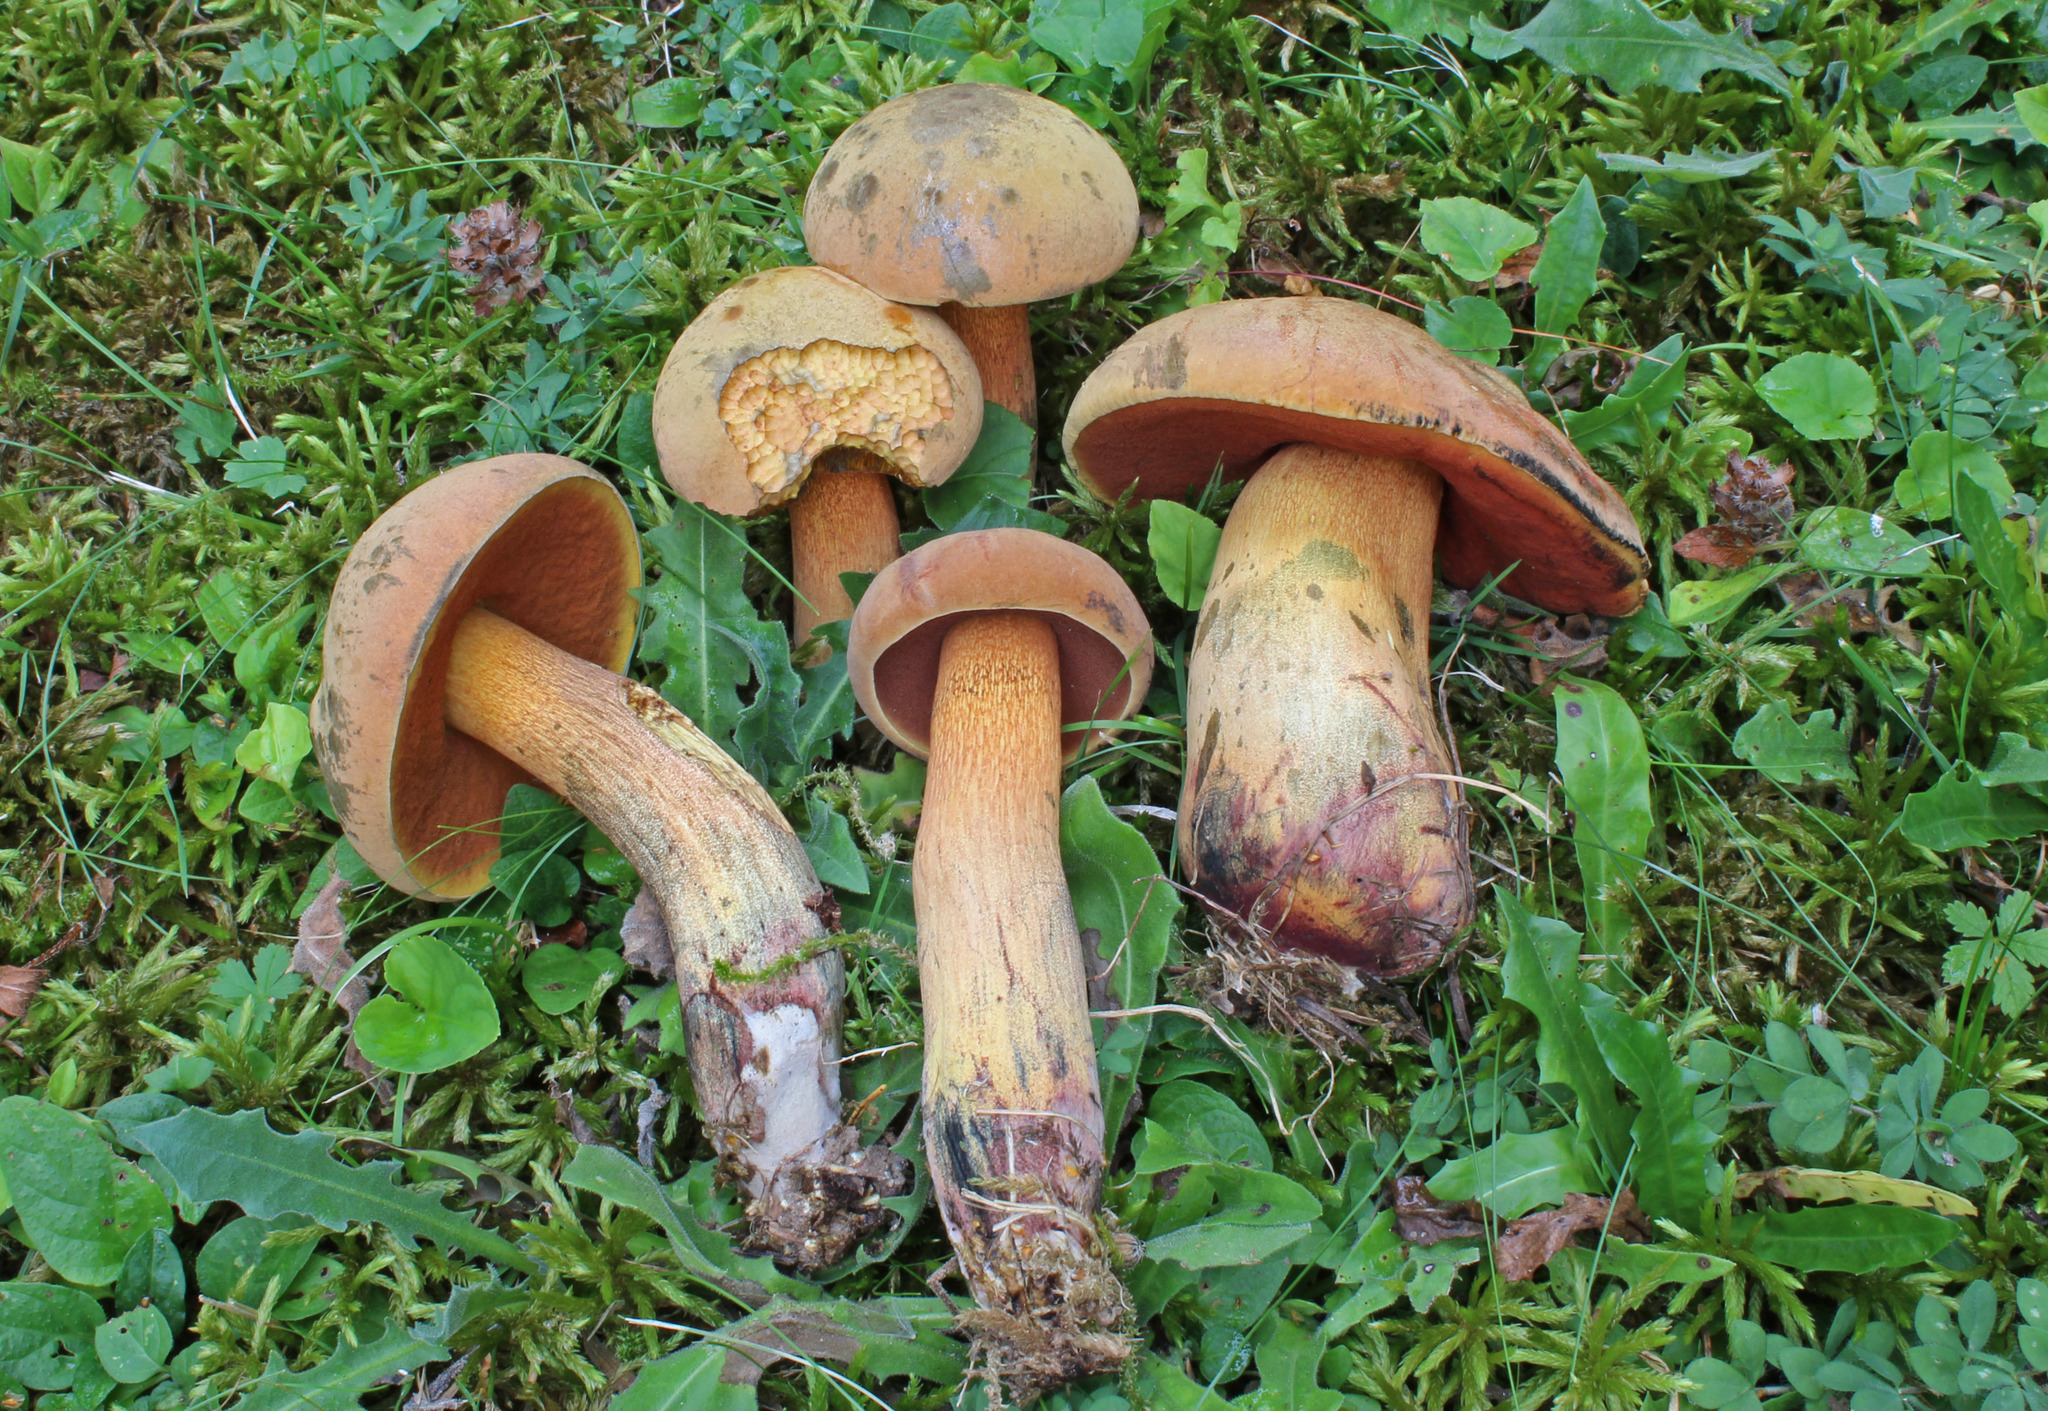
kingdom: Fungi
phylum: Basidiomycota
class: Agaricomycetes
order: Boletales
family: Boletaceae
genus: Suillellus
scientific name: Suillellus luridus
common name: Lurid bolete
